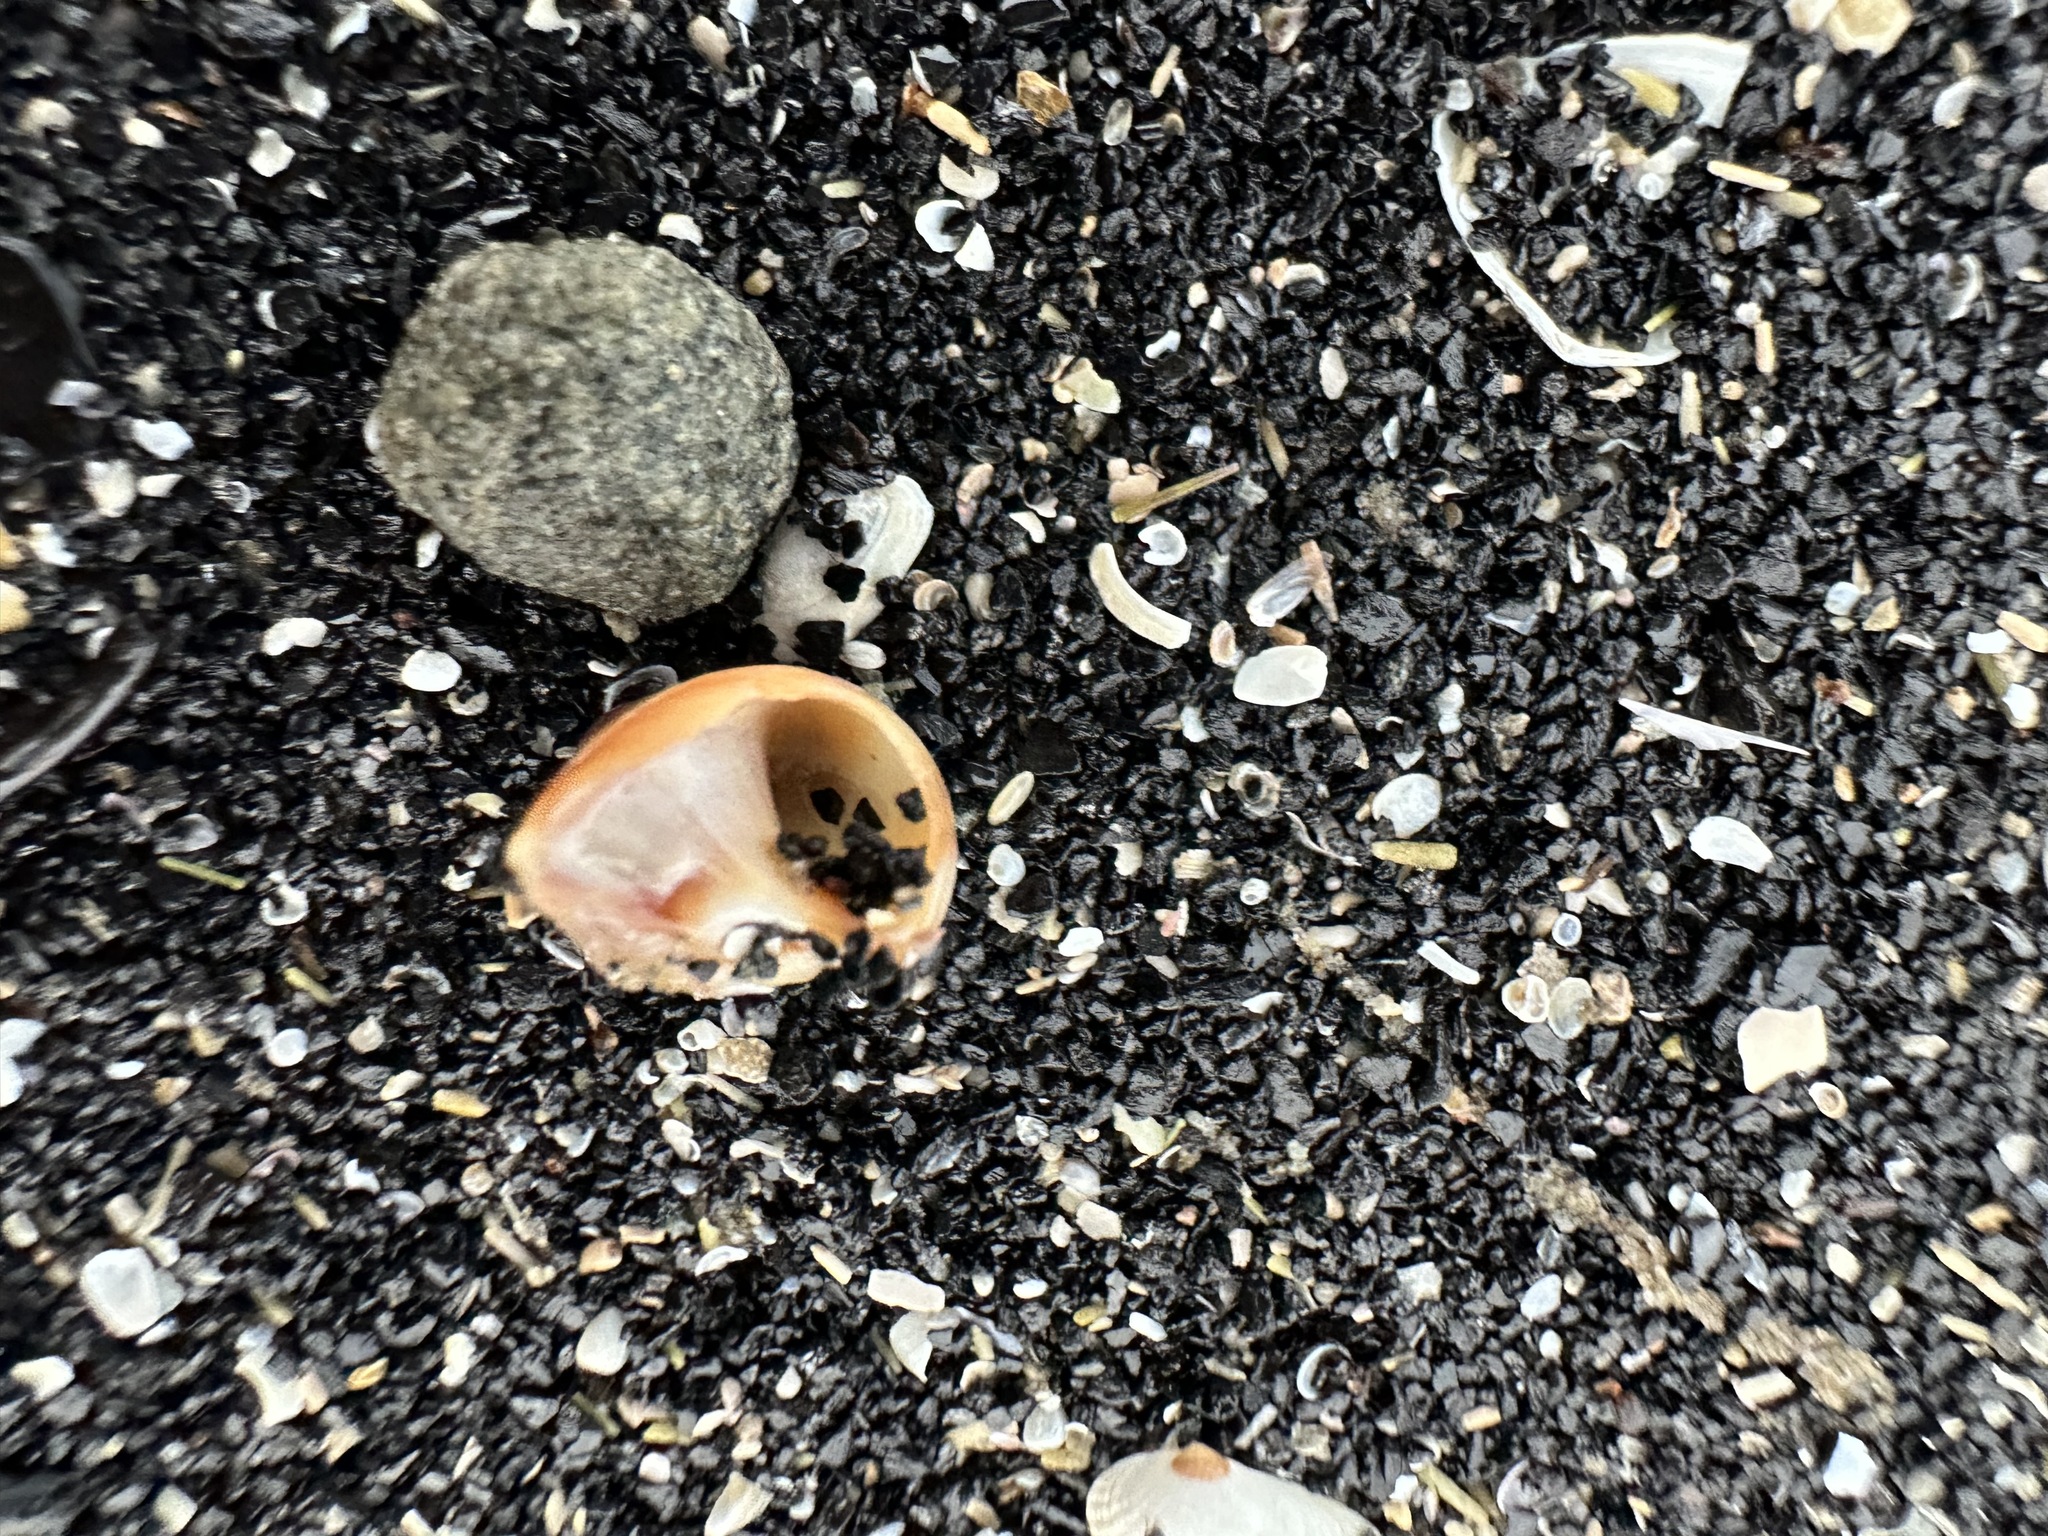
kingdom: Animalia
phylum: Mollusca
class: Gastropoda
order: Littorinimorpha
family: Naticidae
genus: Euspira
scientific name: Euspira heros
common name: Common northern moonsnail
